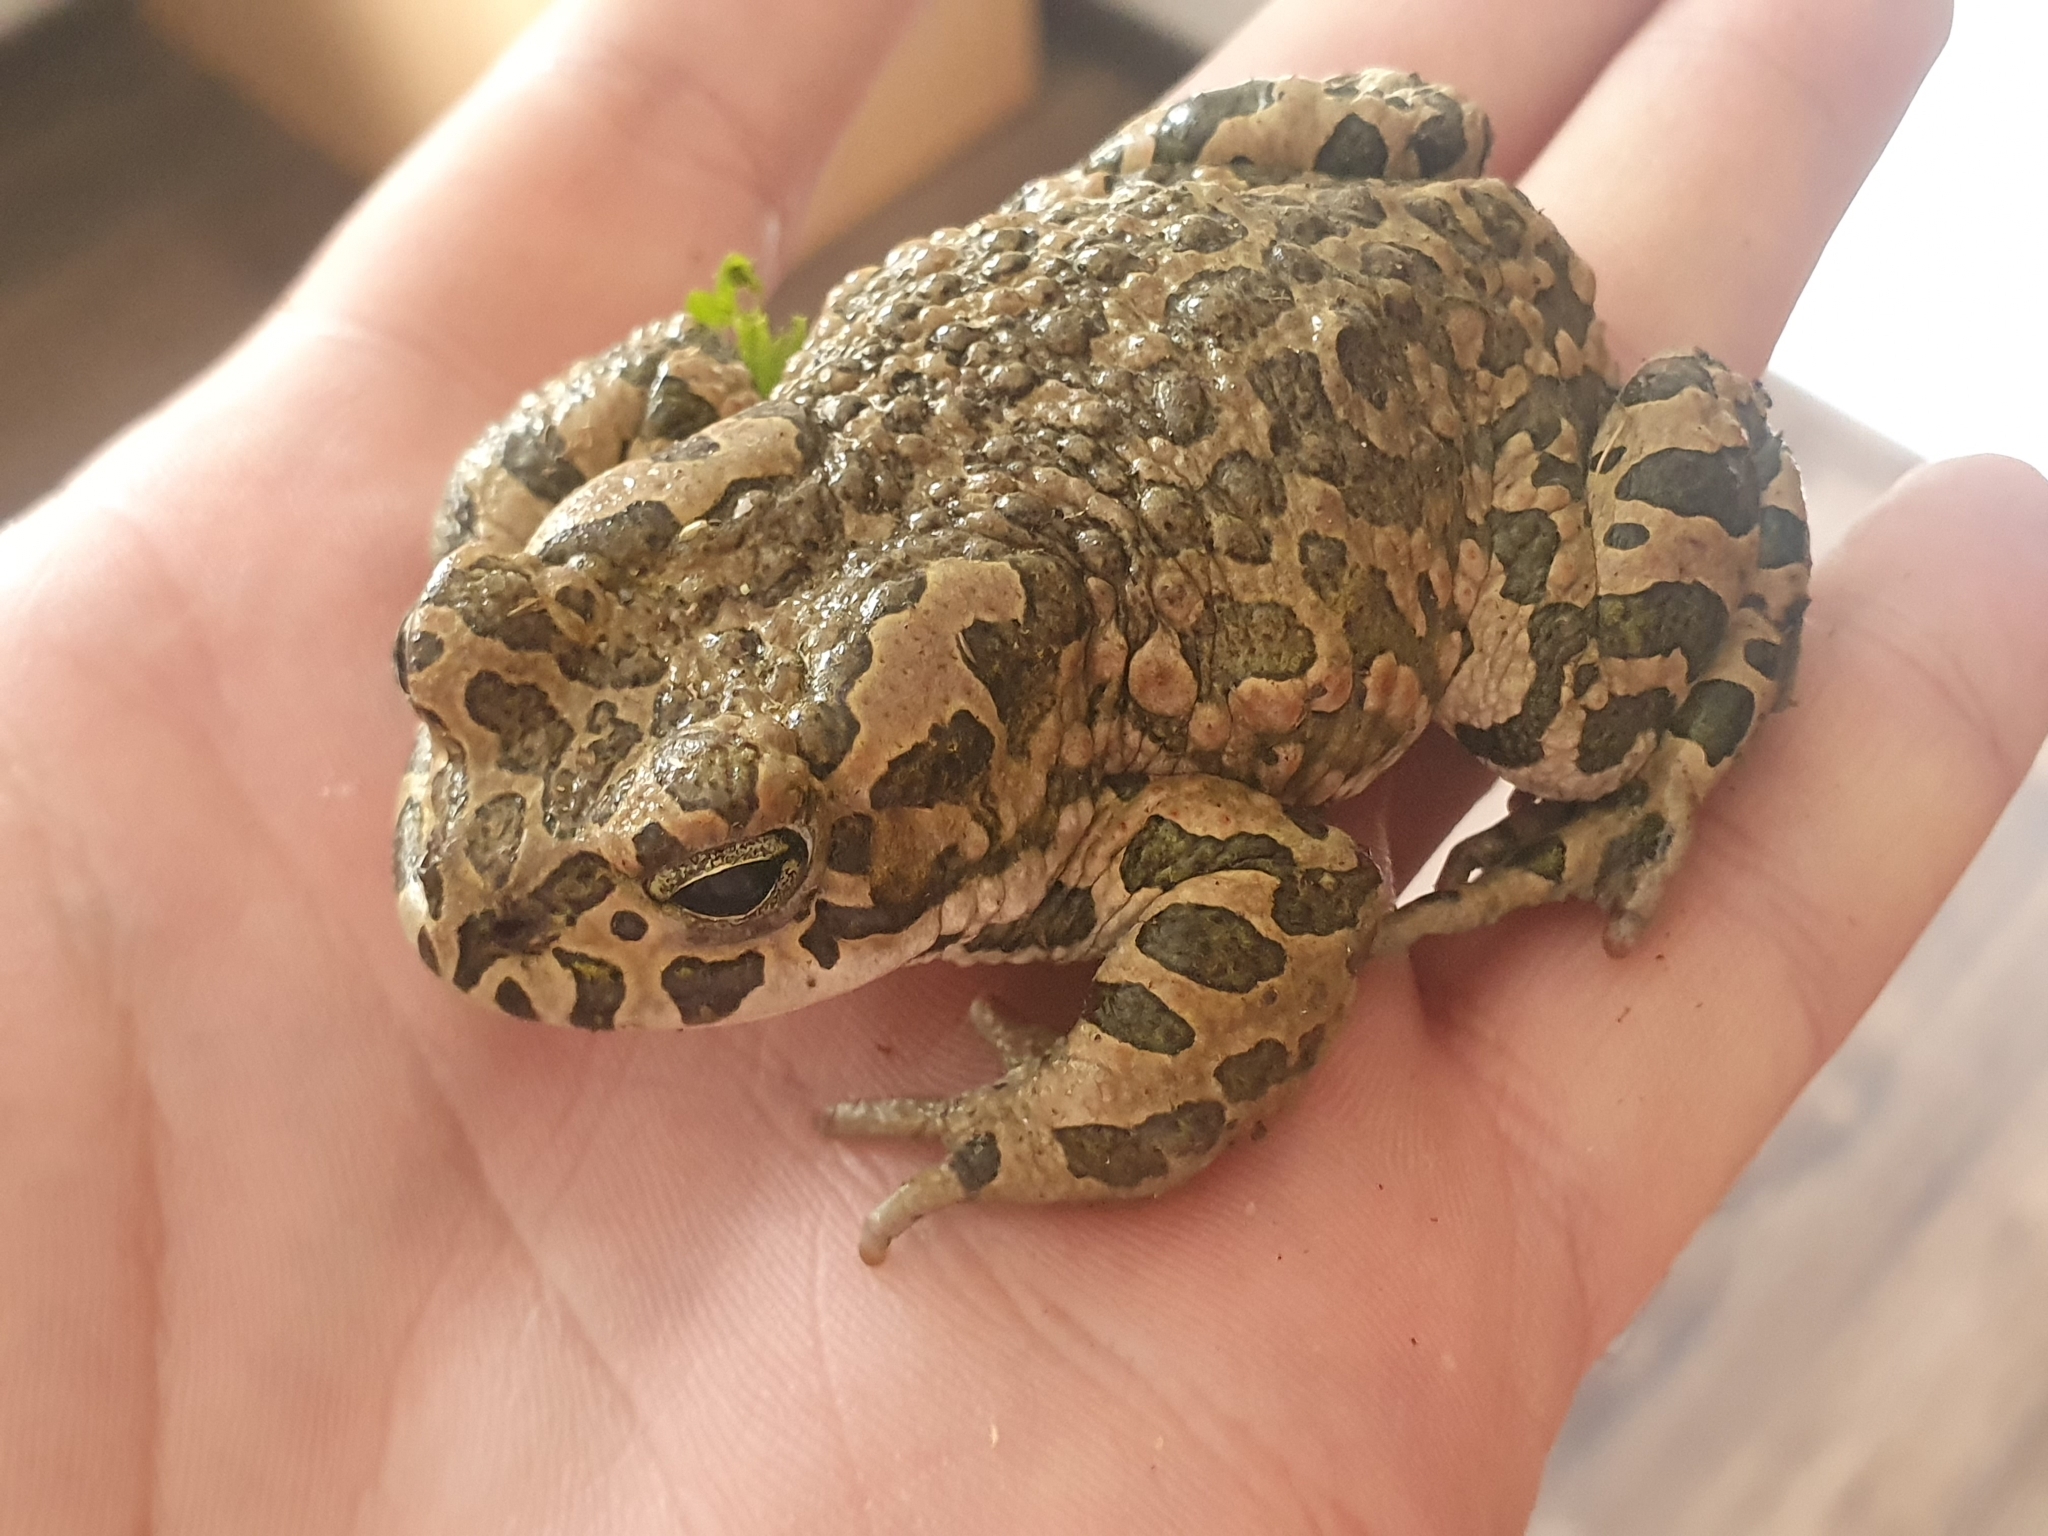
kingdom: Animalia
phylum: Chordata
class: Amphibia
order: Anura
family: Bufonidae
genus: Bufotes
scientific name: Bufotes viridis
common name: European green toad
